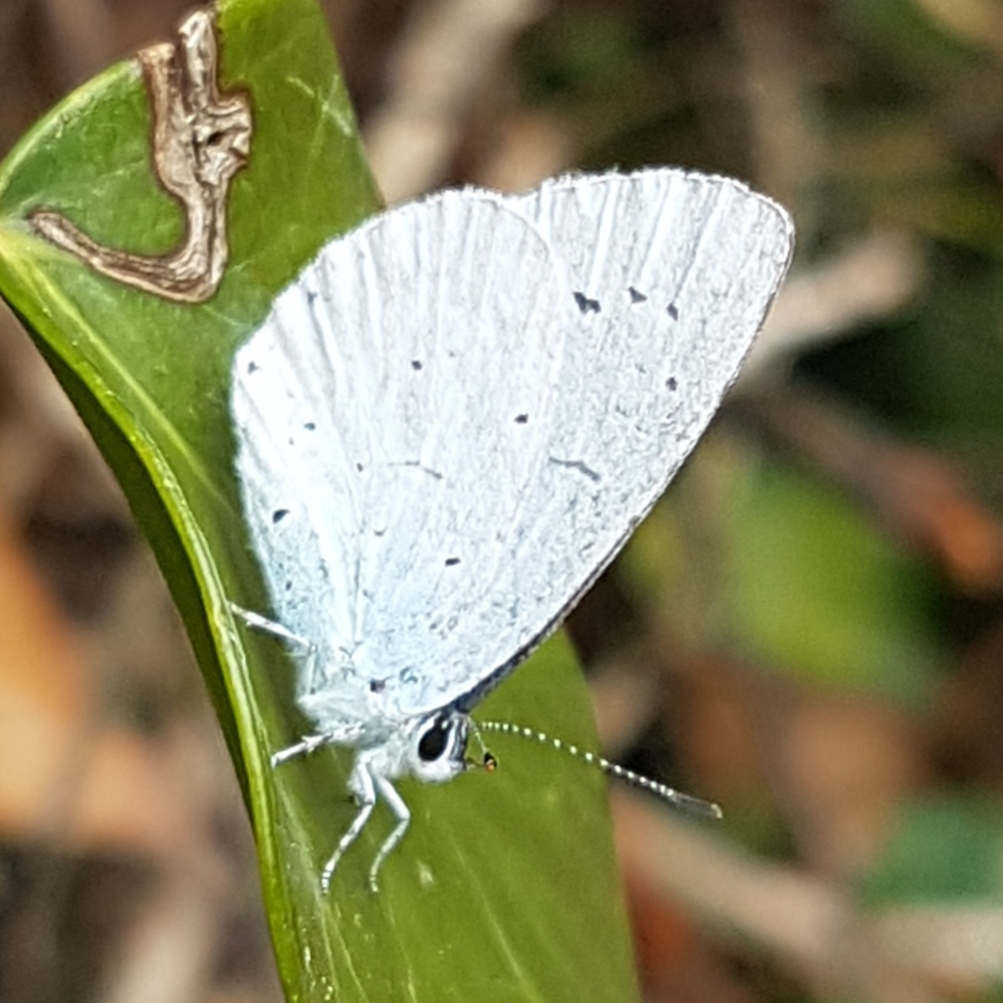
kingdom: Animalia
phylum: Arthropoda
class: Insecta
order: Lepidoptera
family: Lycaenidae
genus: Celastrina
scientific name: Celastrina argiolus
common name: Holly blue
